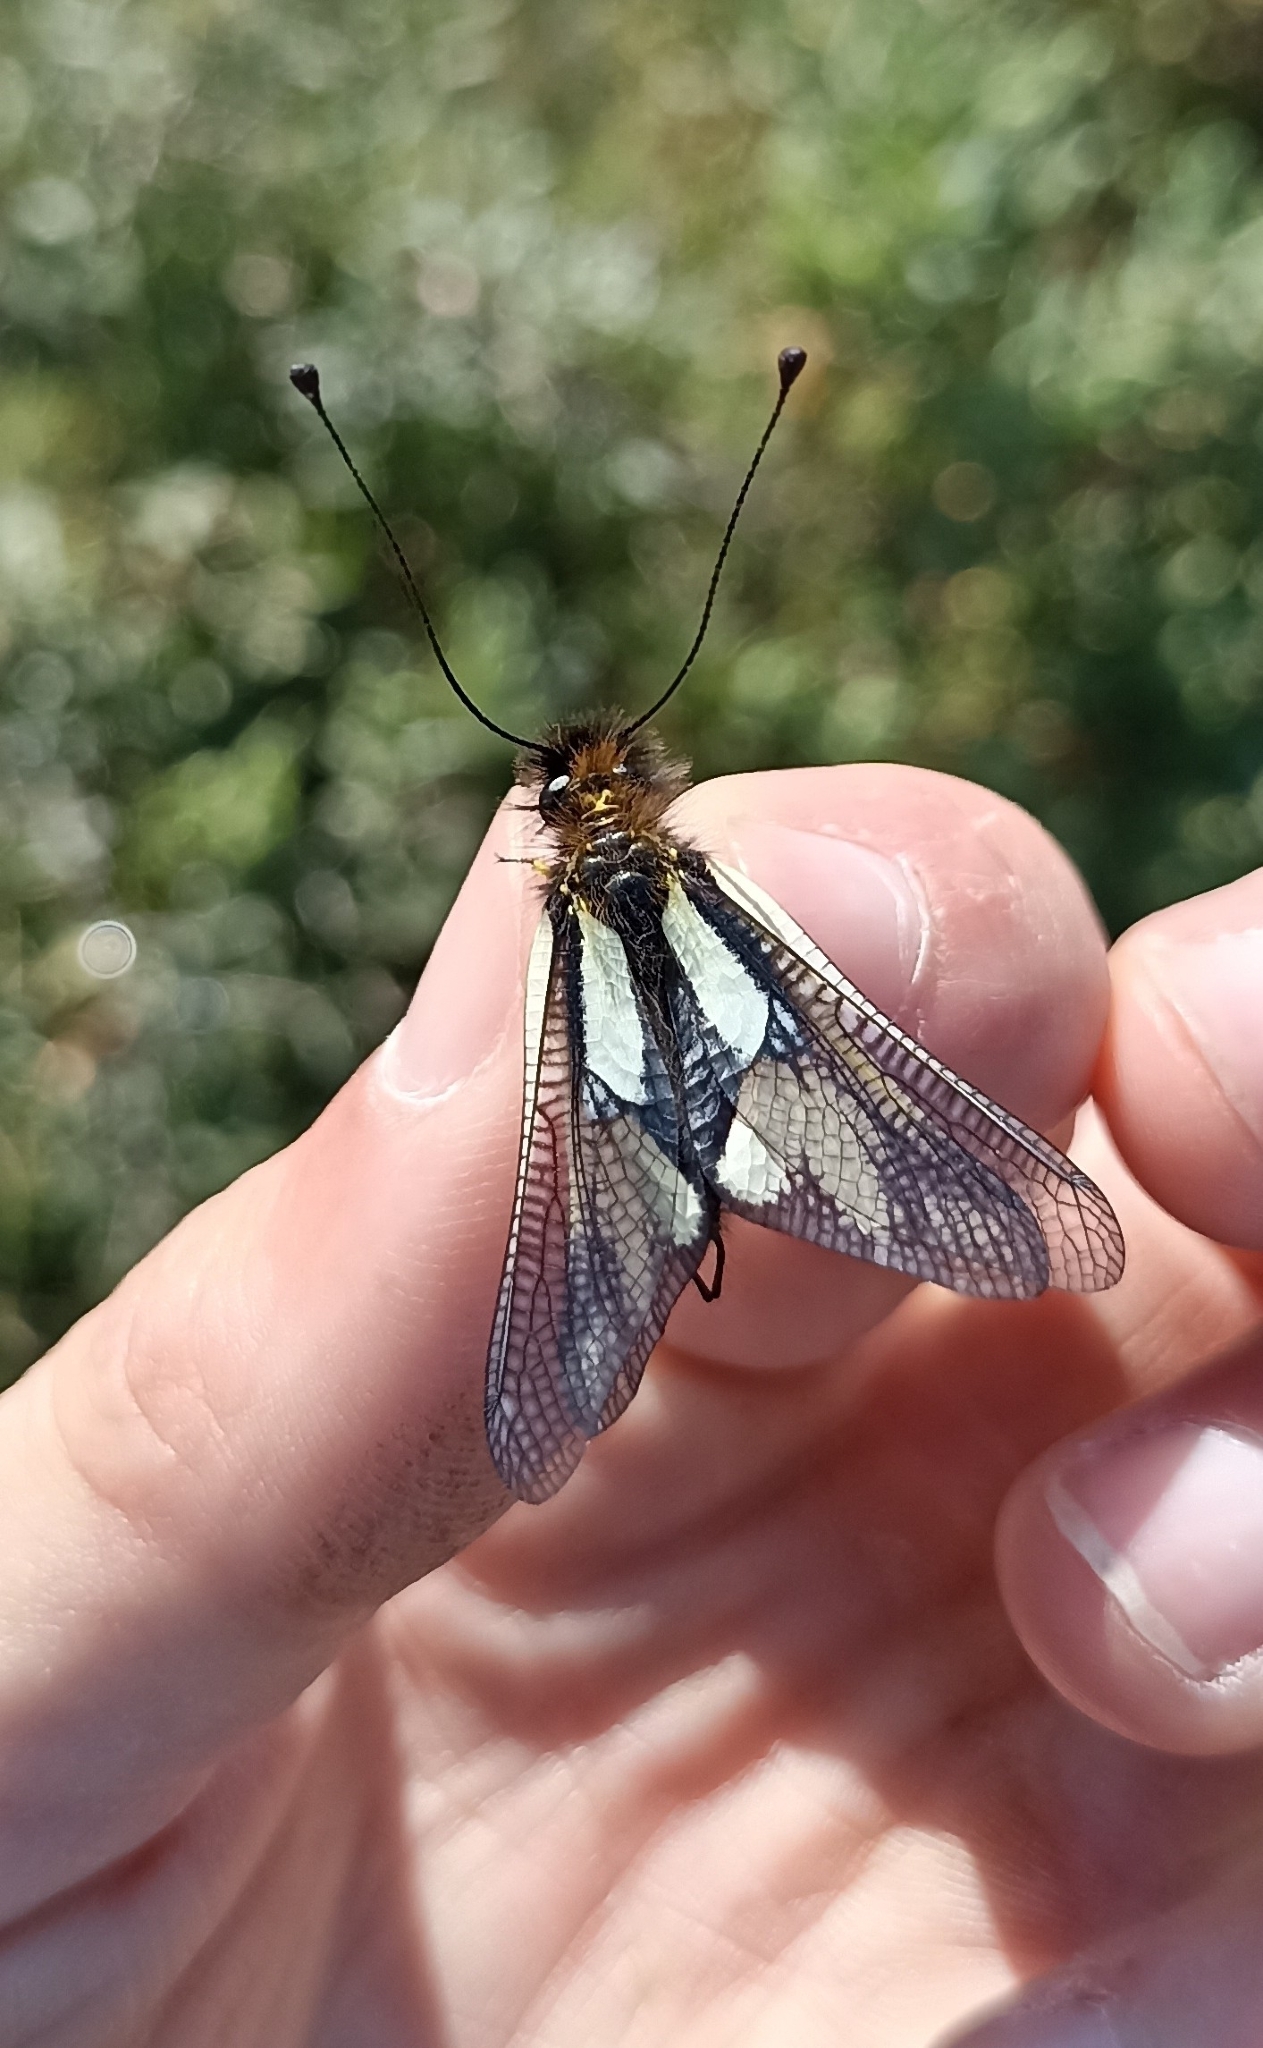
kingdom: Animalia
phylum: Arthropoda
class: Insecta
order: Neuroptera
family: Ascalaphidae
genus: Libelloides
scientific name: Libelloides coccajus
